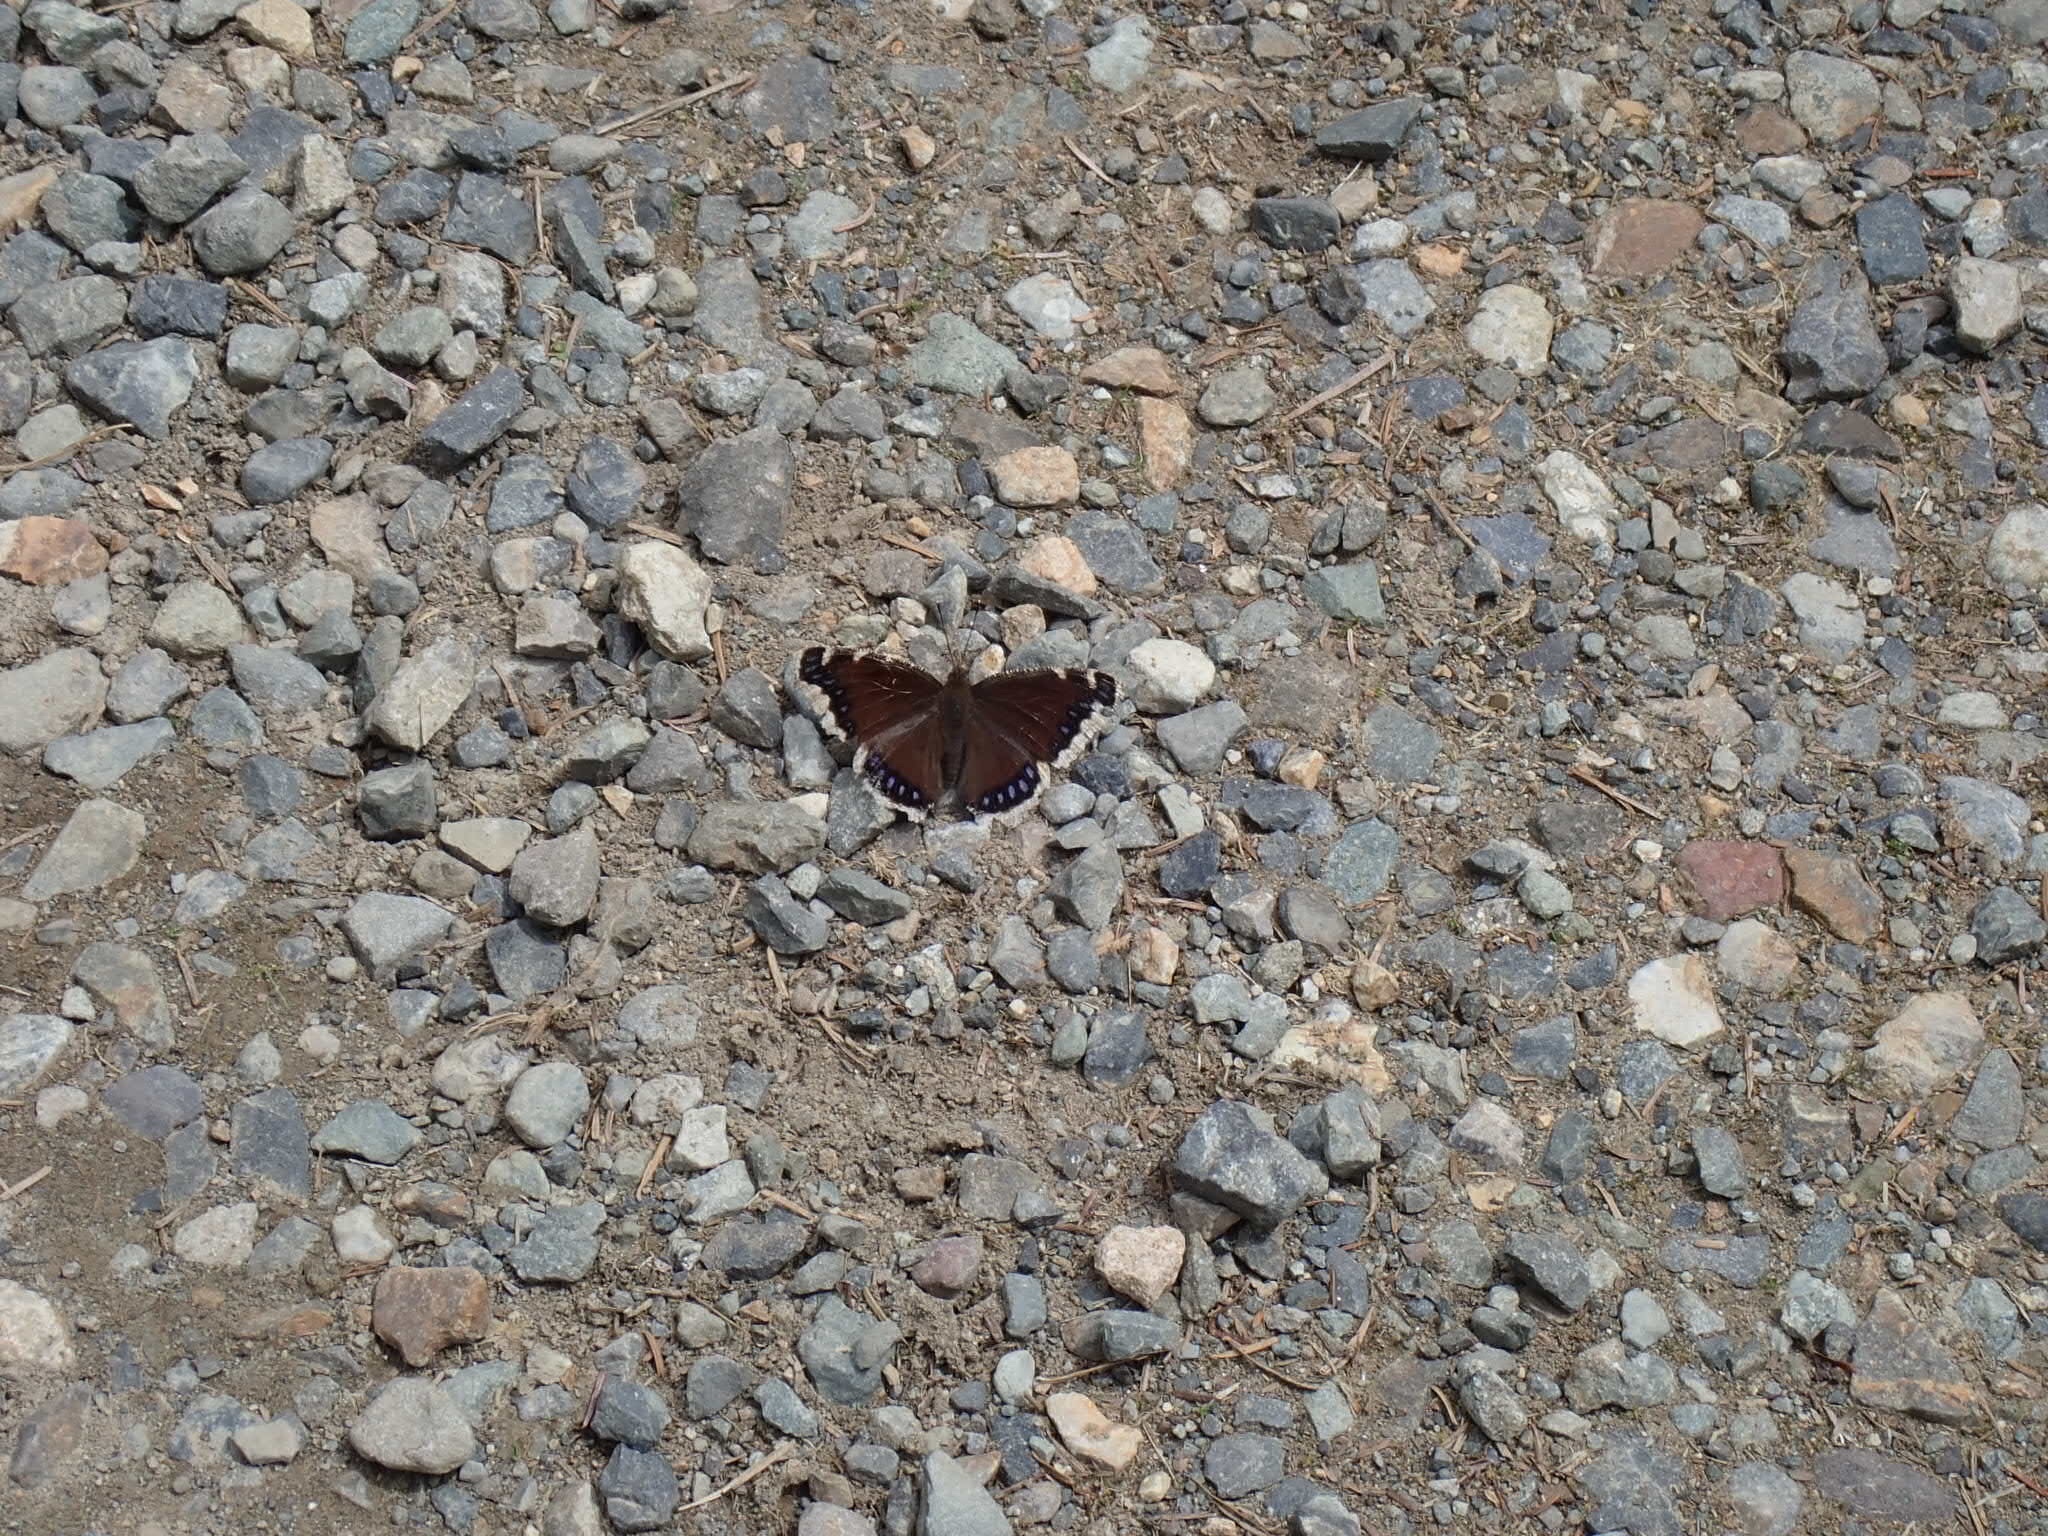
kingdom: Animalia
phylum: Arthropoda
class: Insecta
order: Lepidoptera
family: Nymphalidae
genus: Nymphalis
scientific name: Nymphalis antiopa
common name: Camberwell beauty
